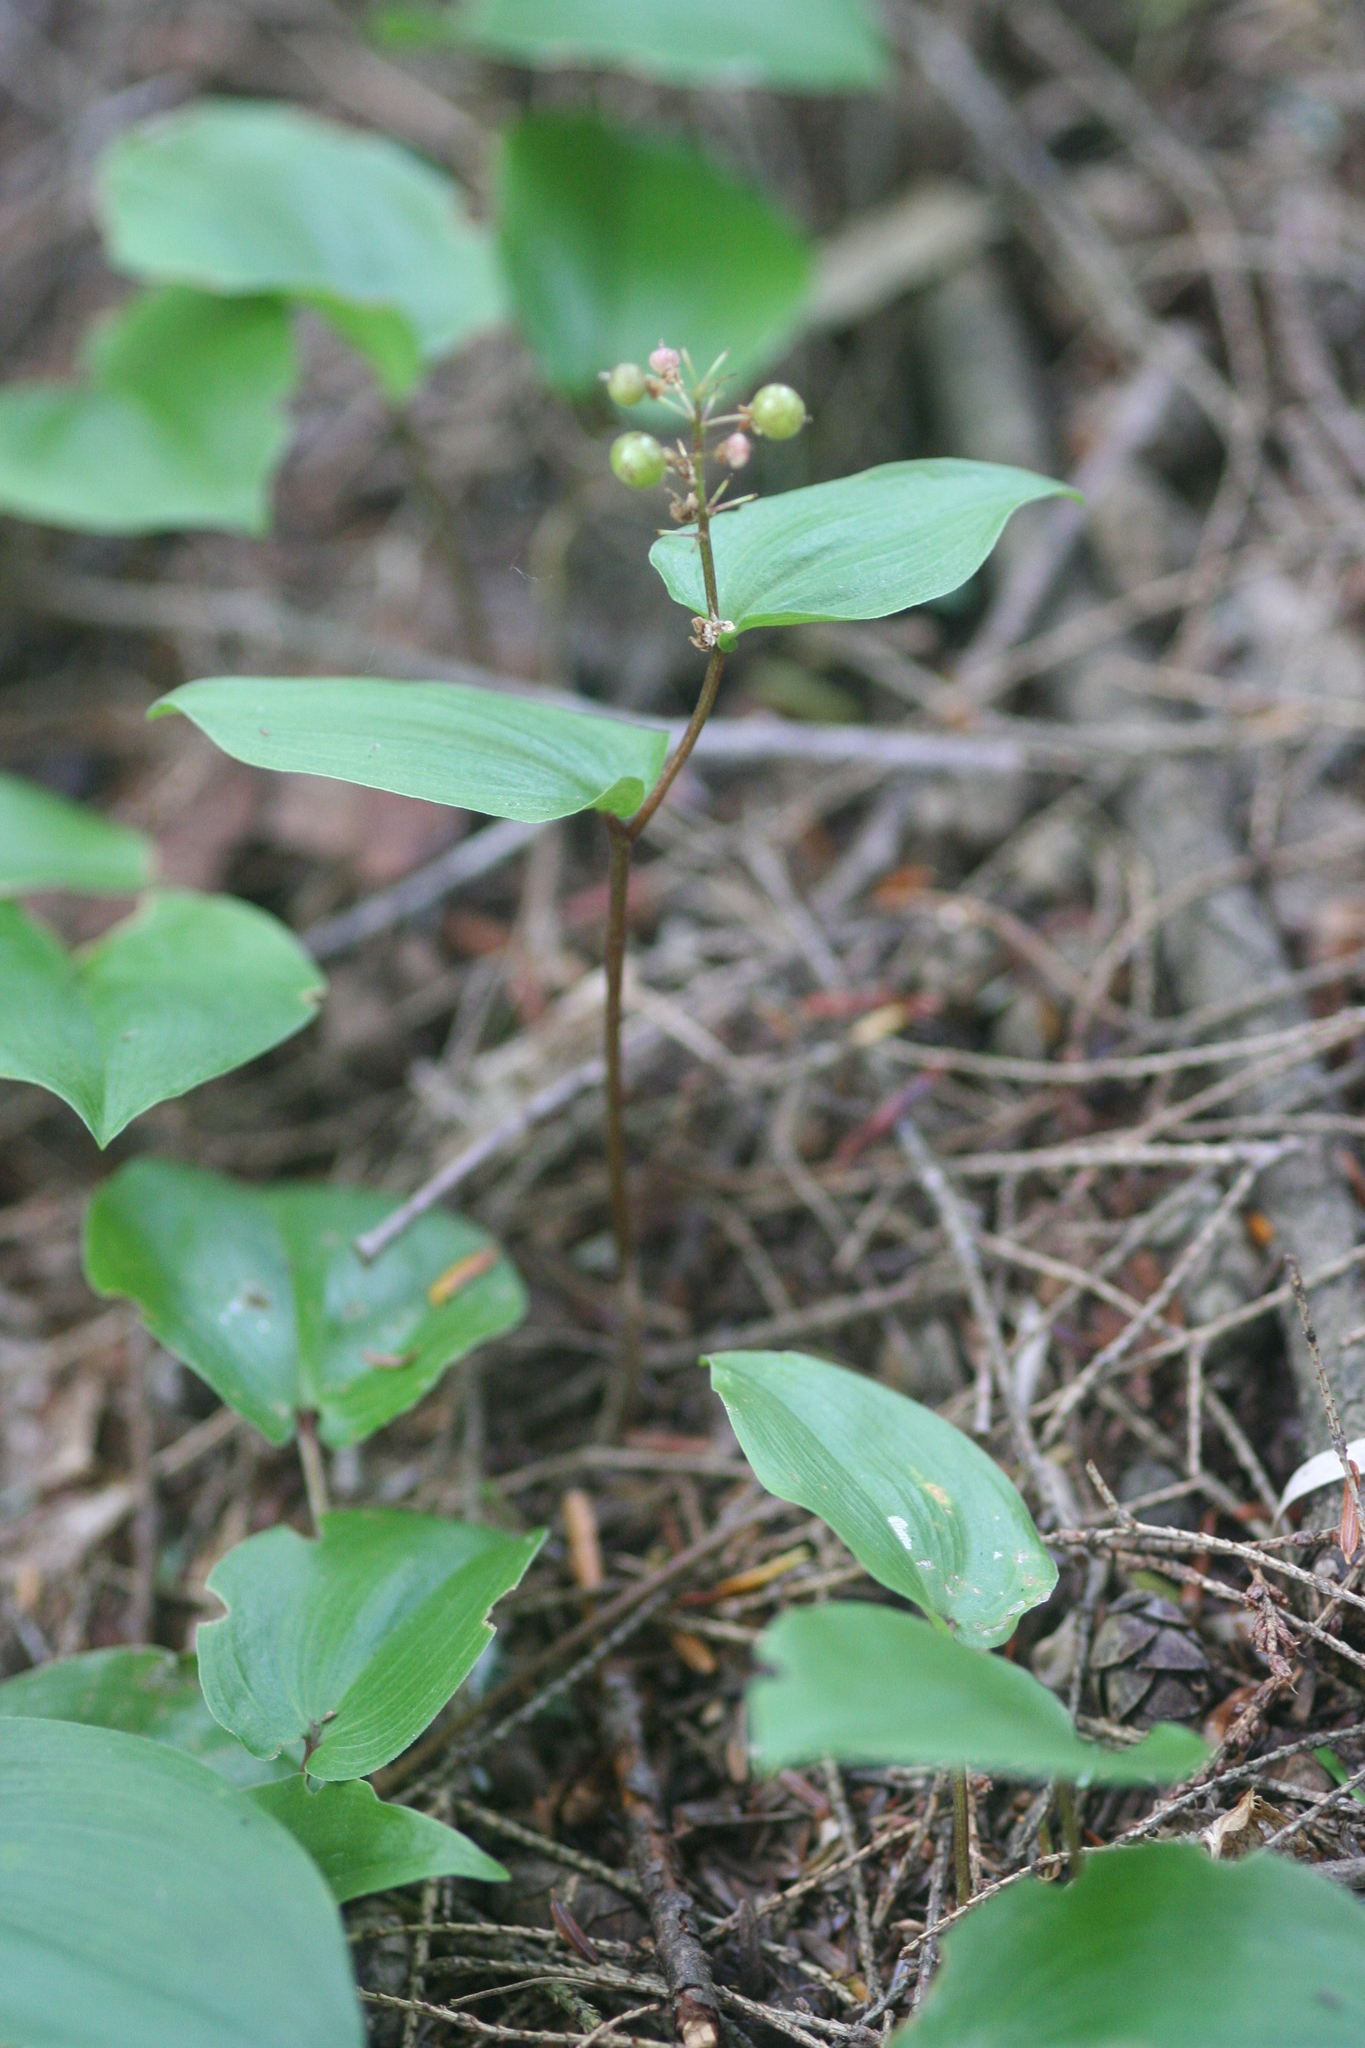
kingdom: Plantae
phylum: Tracheophyta
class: Liliopsida
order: Asparagales
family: Asparagaceae
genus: Maianthemum
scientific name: Maianthemum canadense
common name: False lily-of-the-valley
